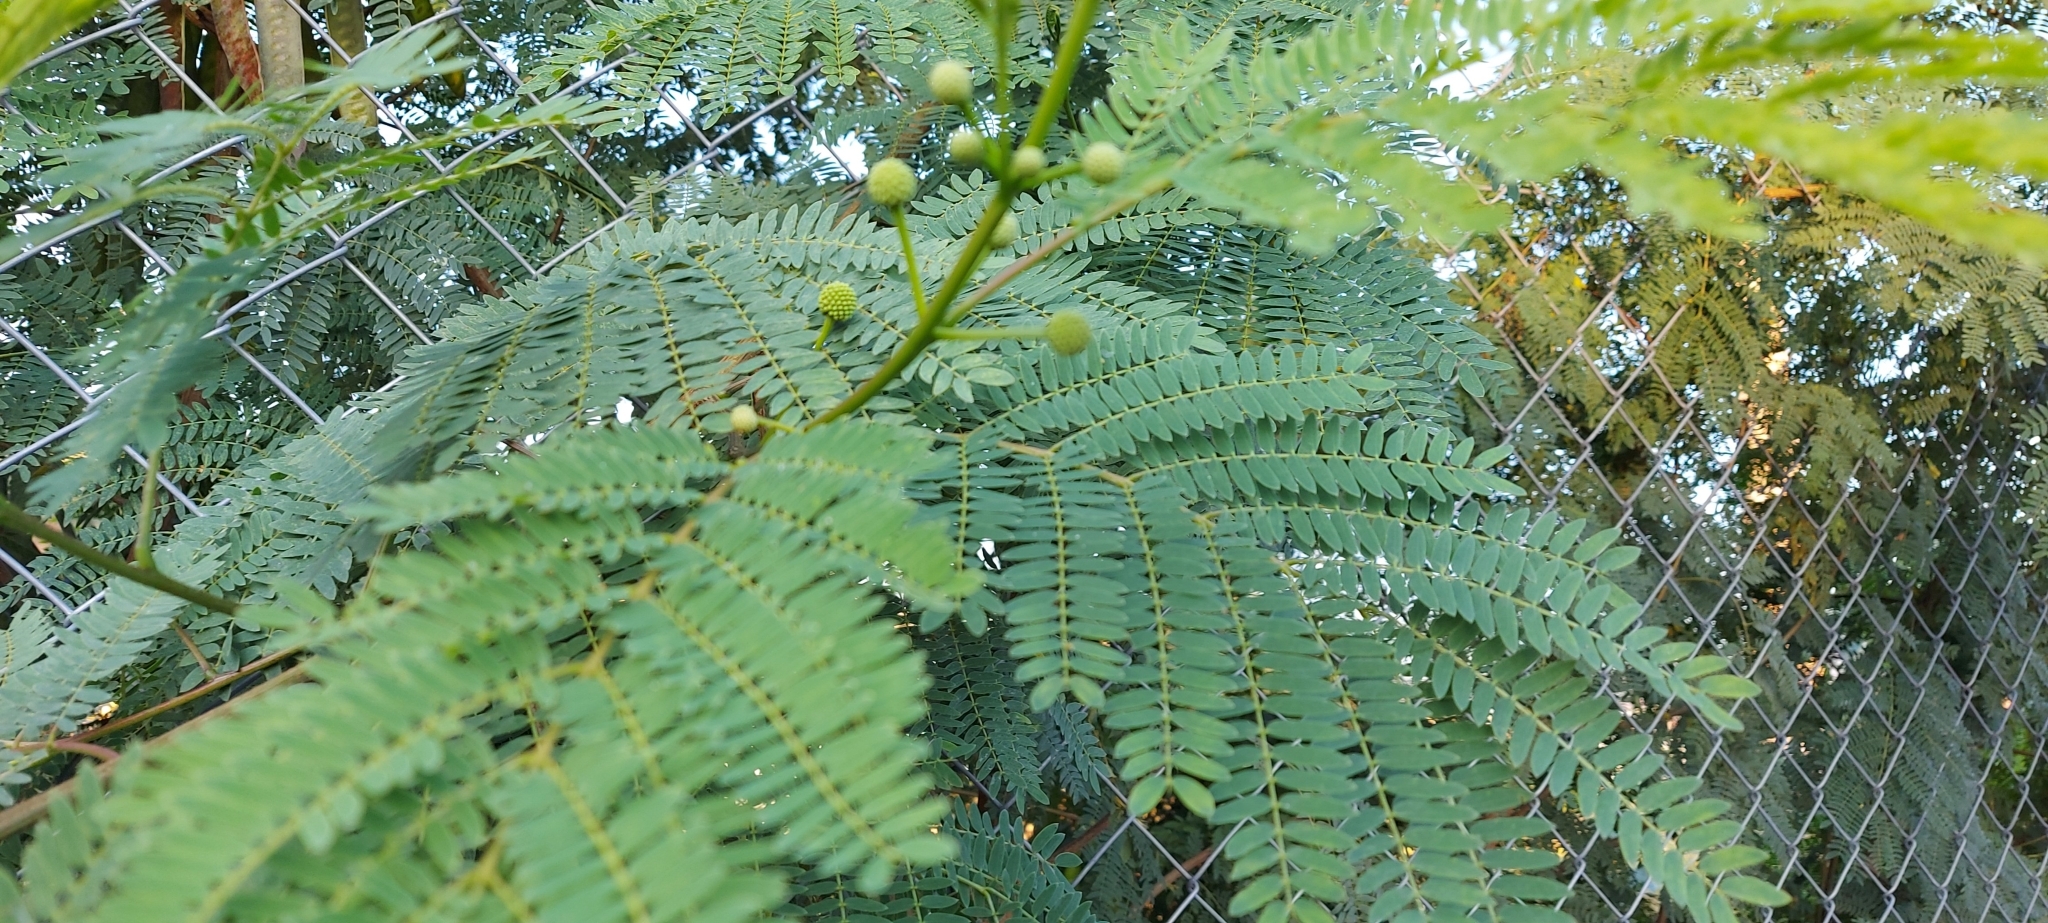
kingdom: Plantae
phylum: Tracheophyta
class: Magnoliopsida
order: Fabales
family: Fabaceae
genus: Leucaena
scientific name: Leucaena leucocephala
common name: White leadtree
